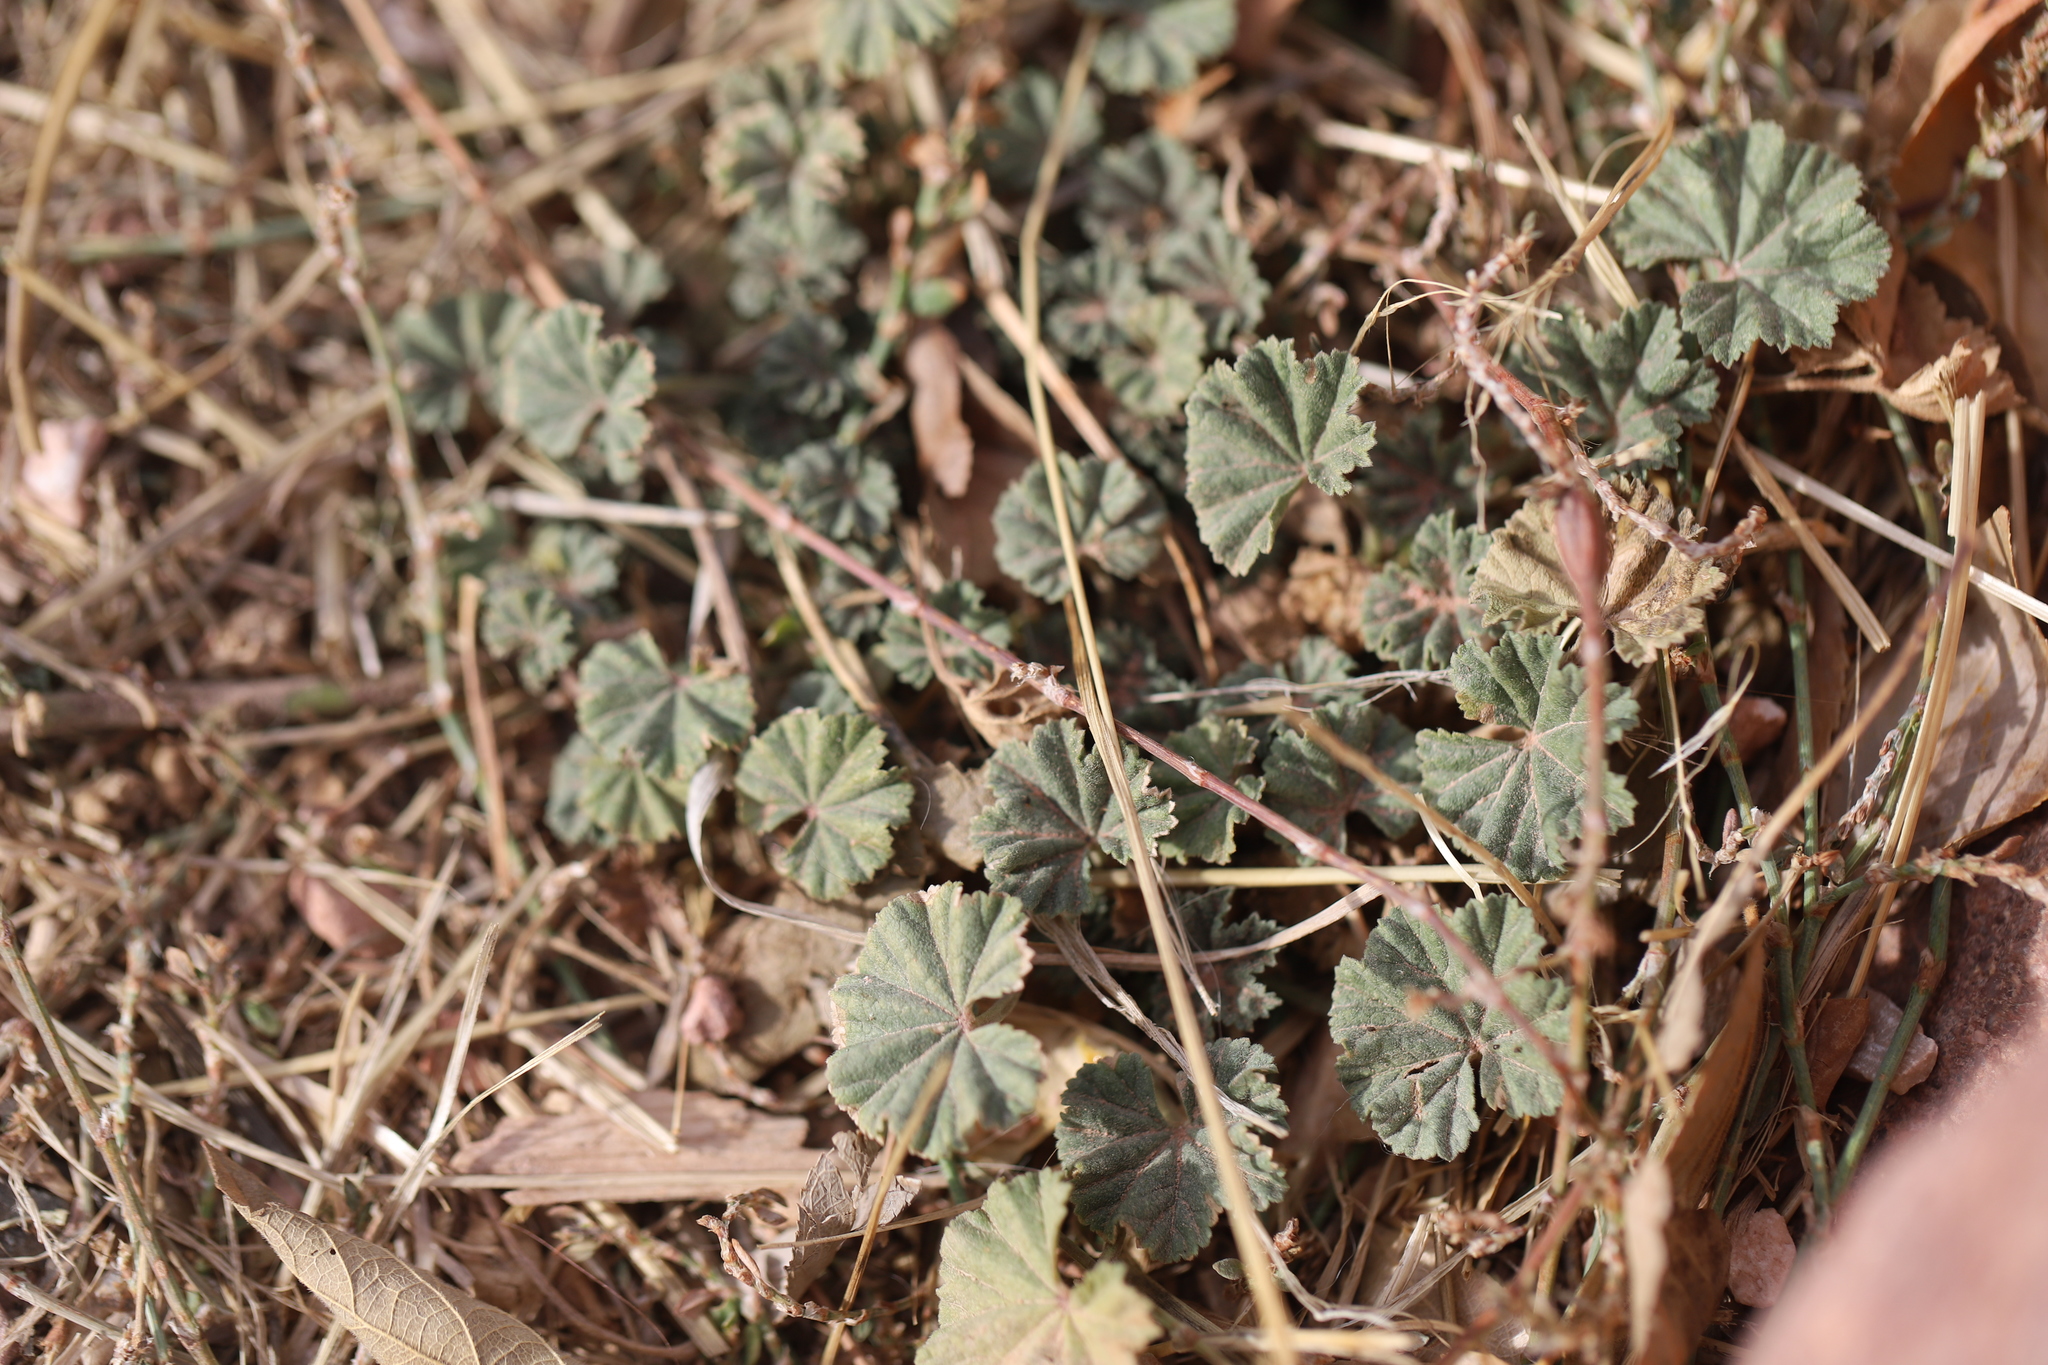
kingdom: Plantae
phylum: Tracheophyta
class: Magnoliopsida
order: Malvales
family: Malvaceae
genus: Malva
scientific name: Malva neglecta
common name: Common mallow
